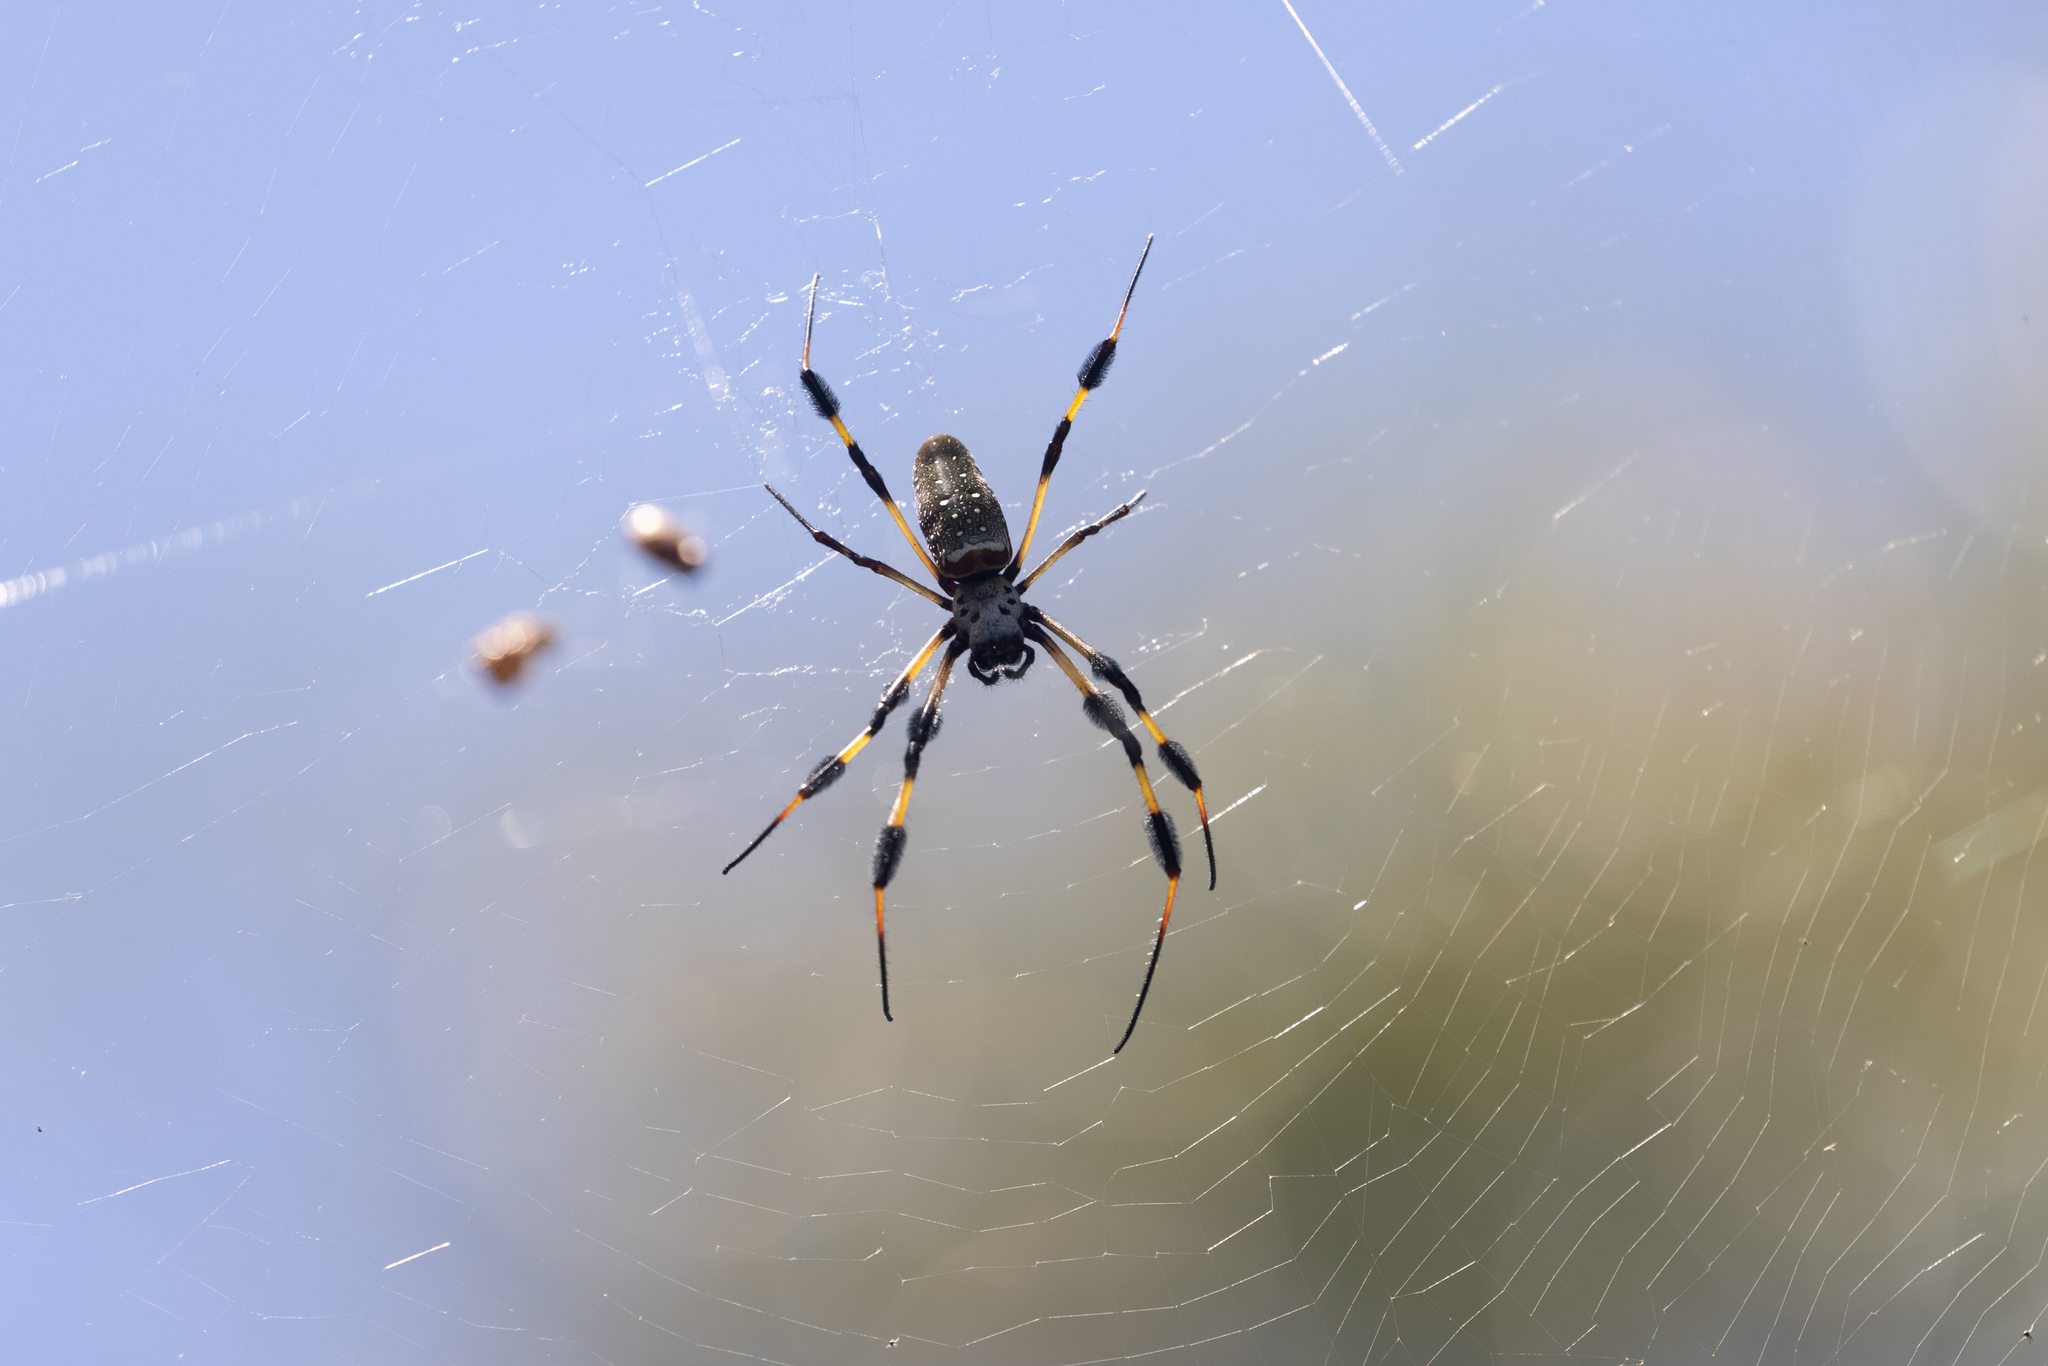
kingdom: Animalia
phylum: Arthropoda
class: Arachnida
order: Araneae
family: Araneidae
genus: Trichonephila
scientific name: Trichonephila clavipes
